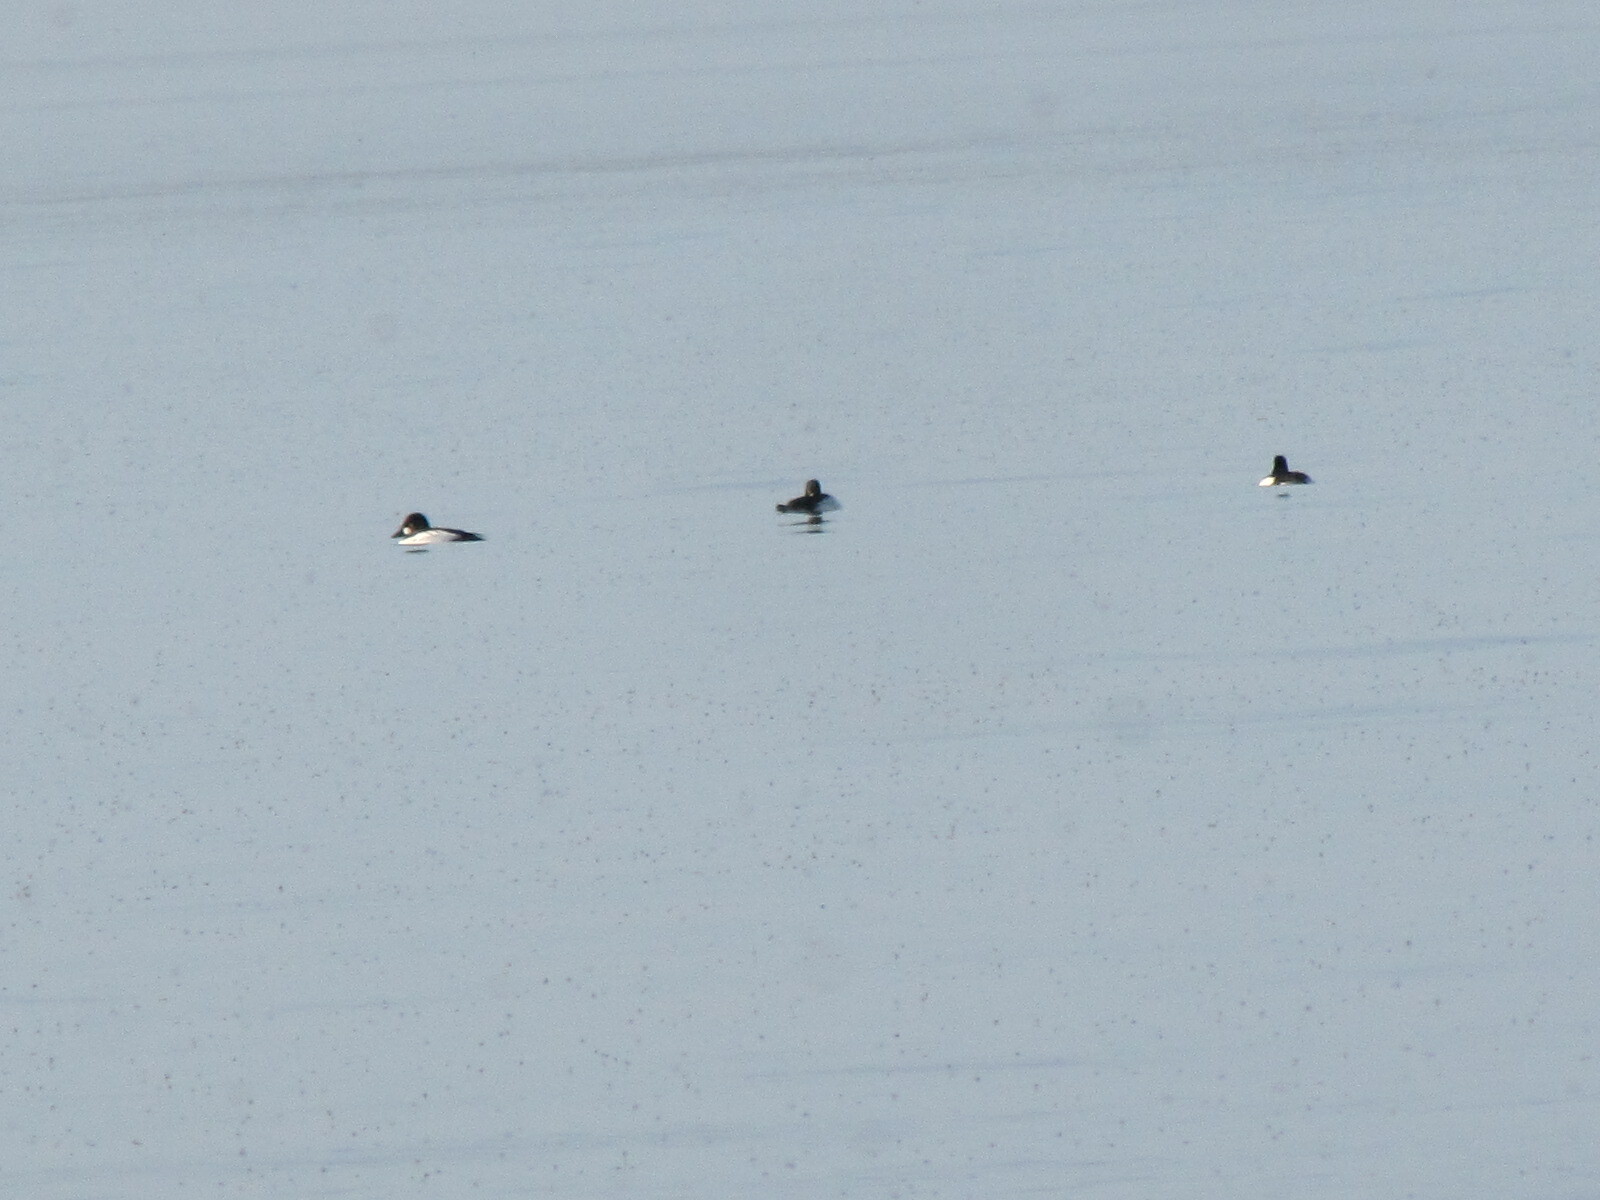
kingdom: Animalia
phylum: Chordata
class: Aves
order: Anseriformes
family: Anatidae
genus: Bucephala
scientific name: Bucephala clangula
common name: Common goldeneye
